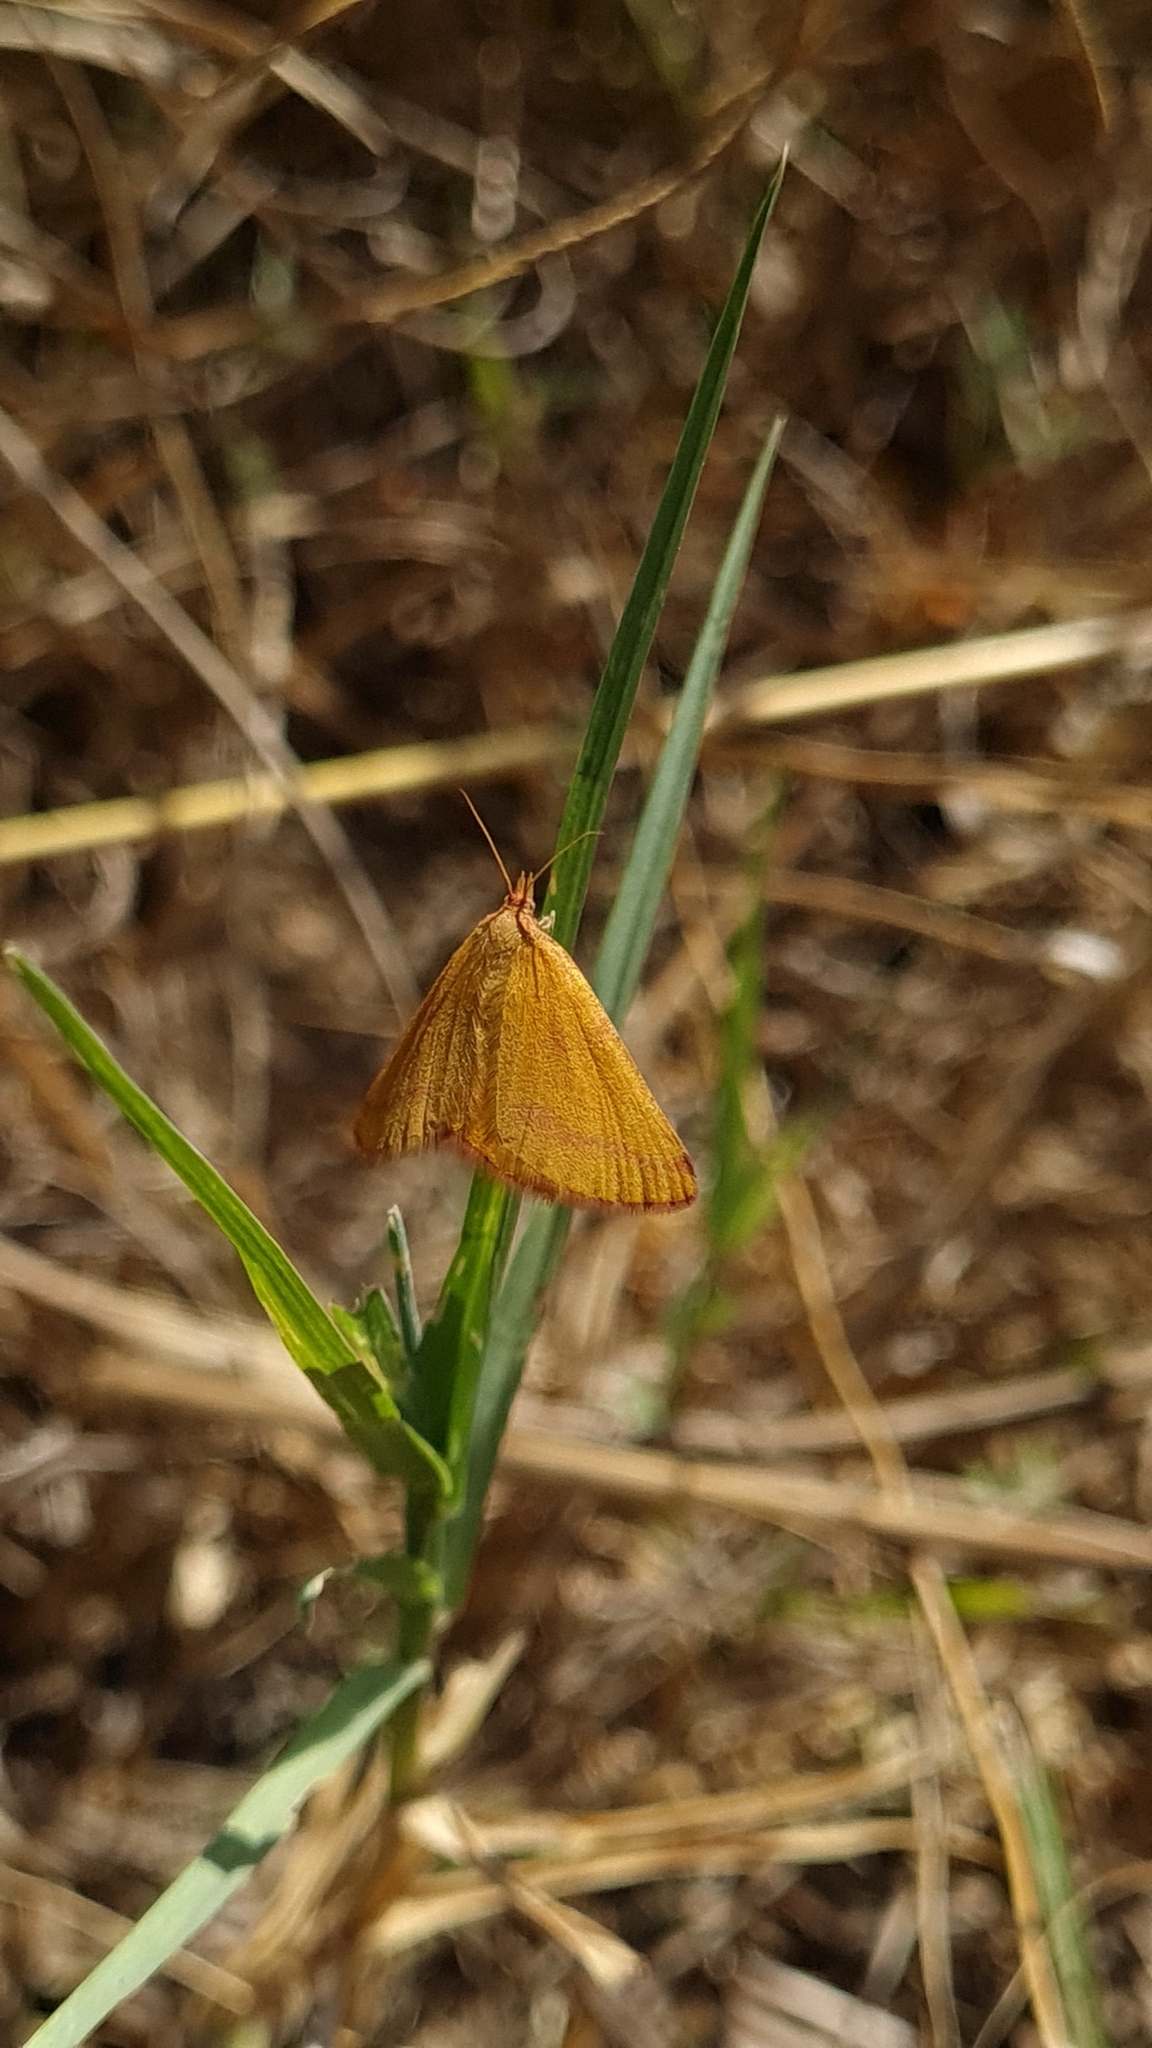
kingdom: Animalia
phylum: Arthropoda
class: Insecta
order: Lepidoptera
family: Geometridae
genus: Lythria
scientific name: Lythria purpuraria
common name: Purple-barred yellow
